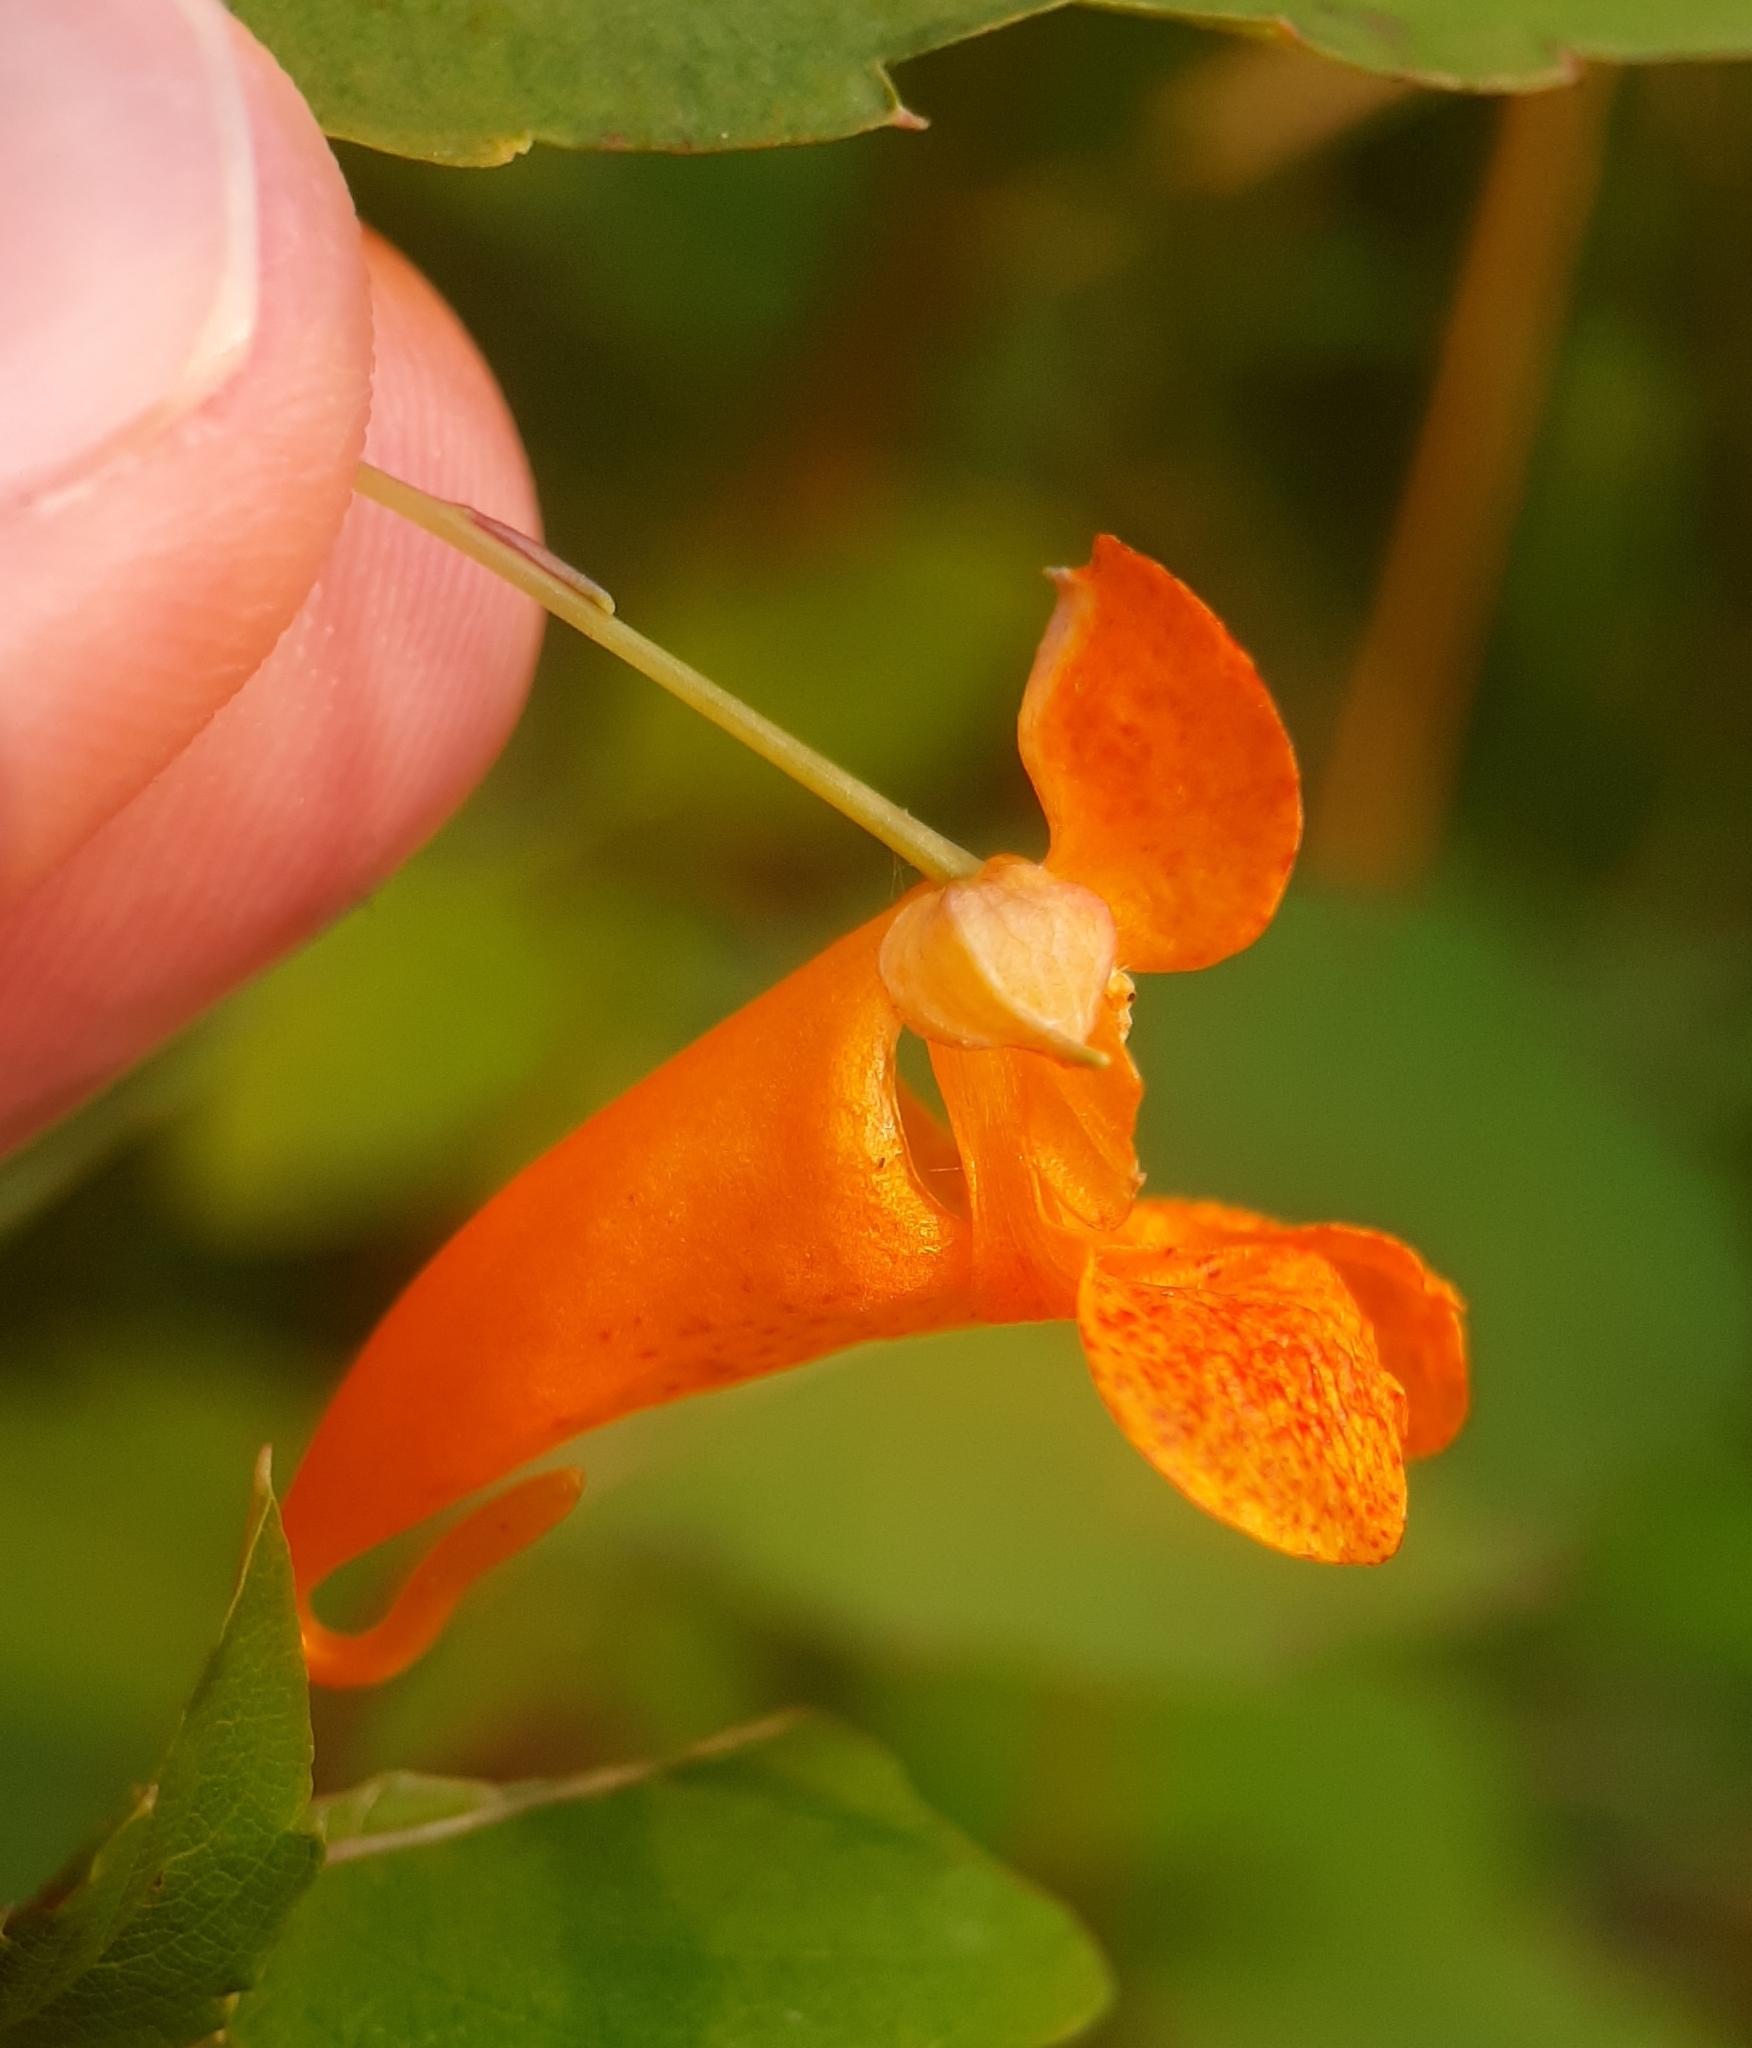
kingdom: Plantae
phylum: Tracheophyta
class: Magnoliopsida
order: Ericales
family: Balsaminaceae
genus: Impatiens
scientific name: Impatiens capensis
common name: Orange balsam
